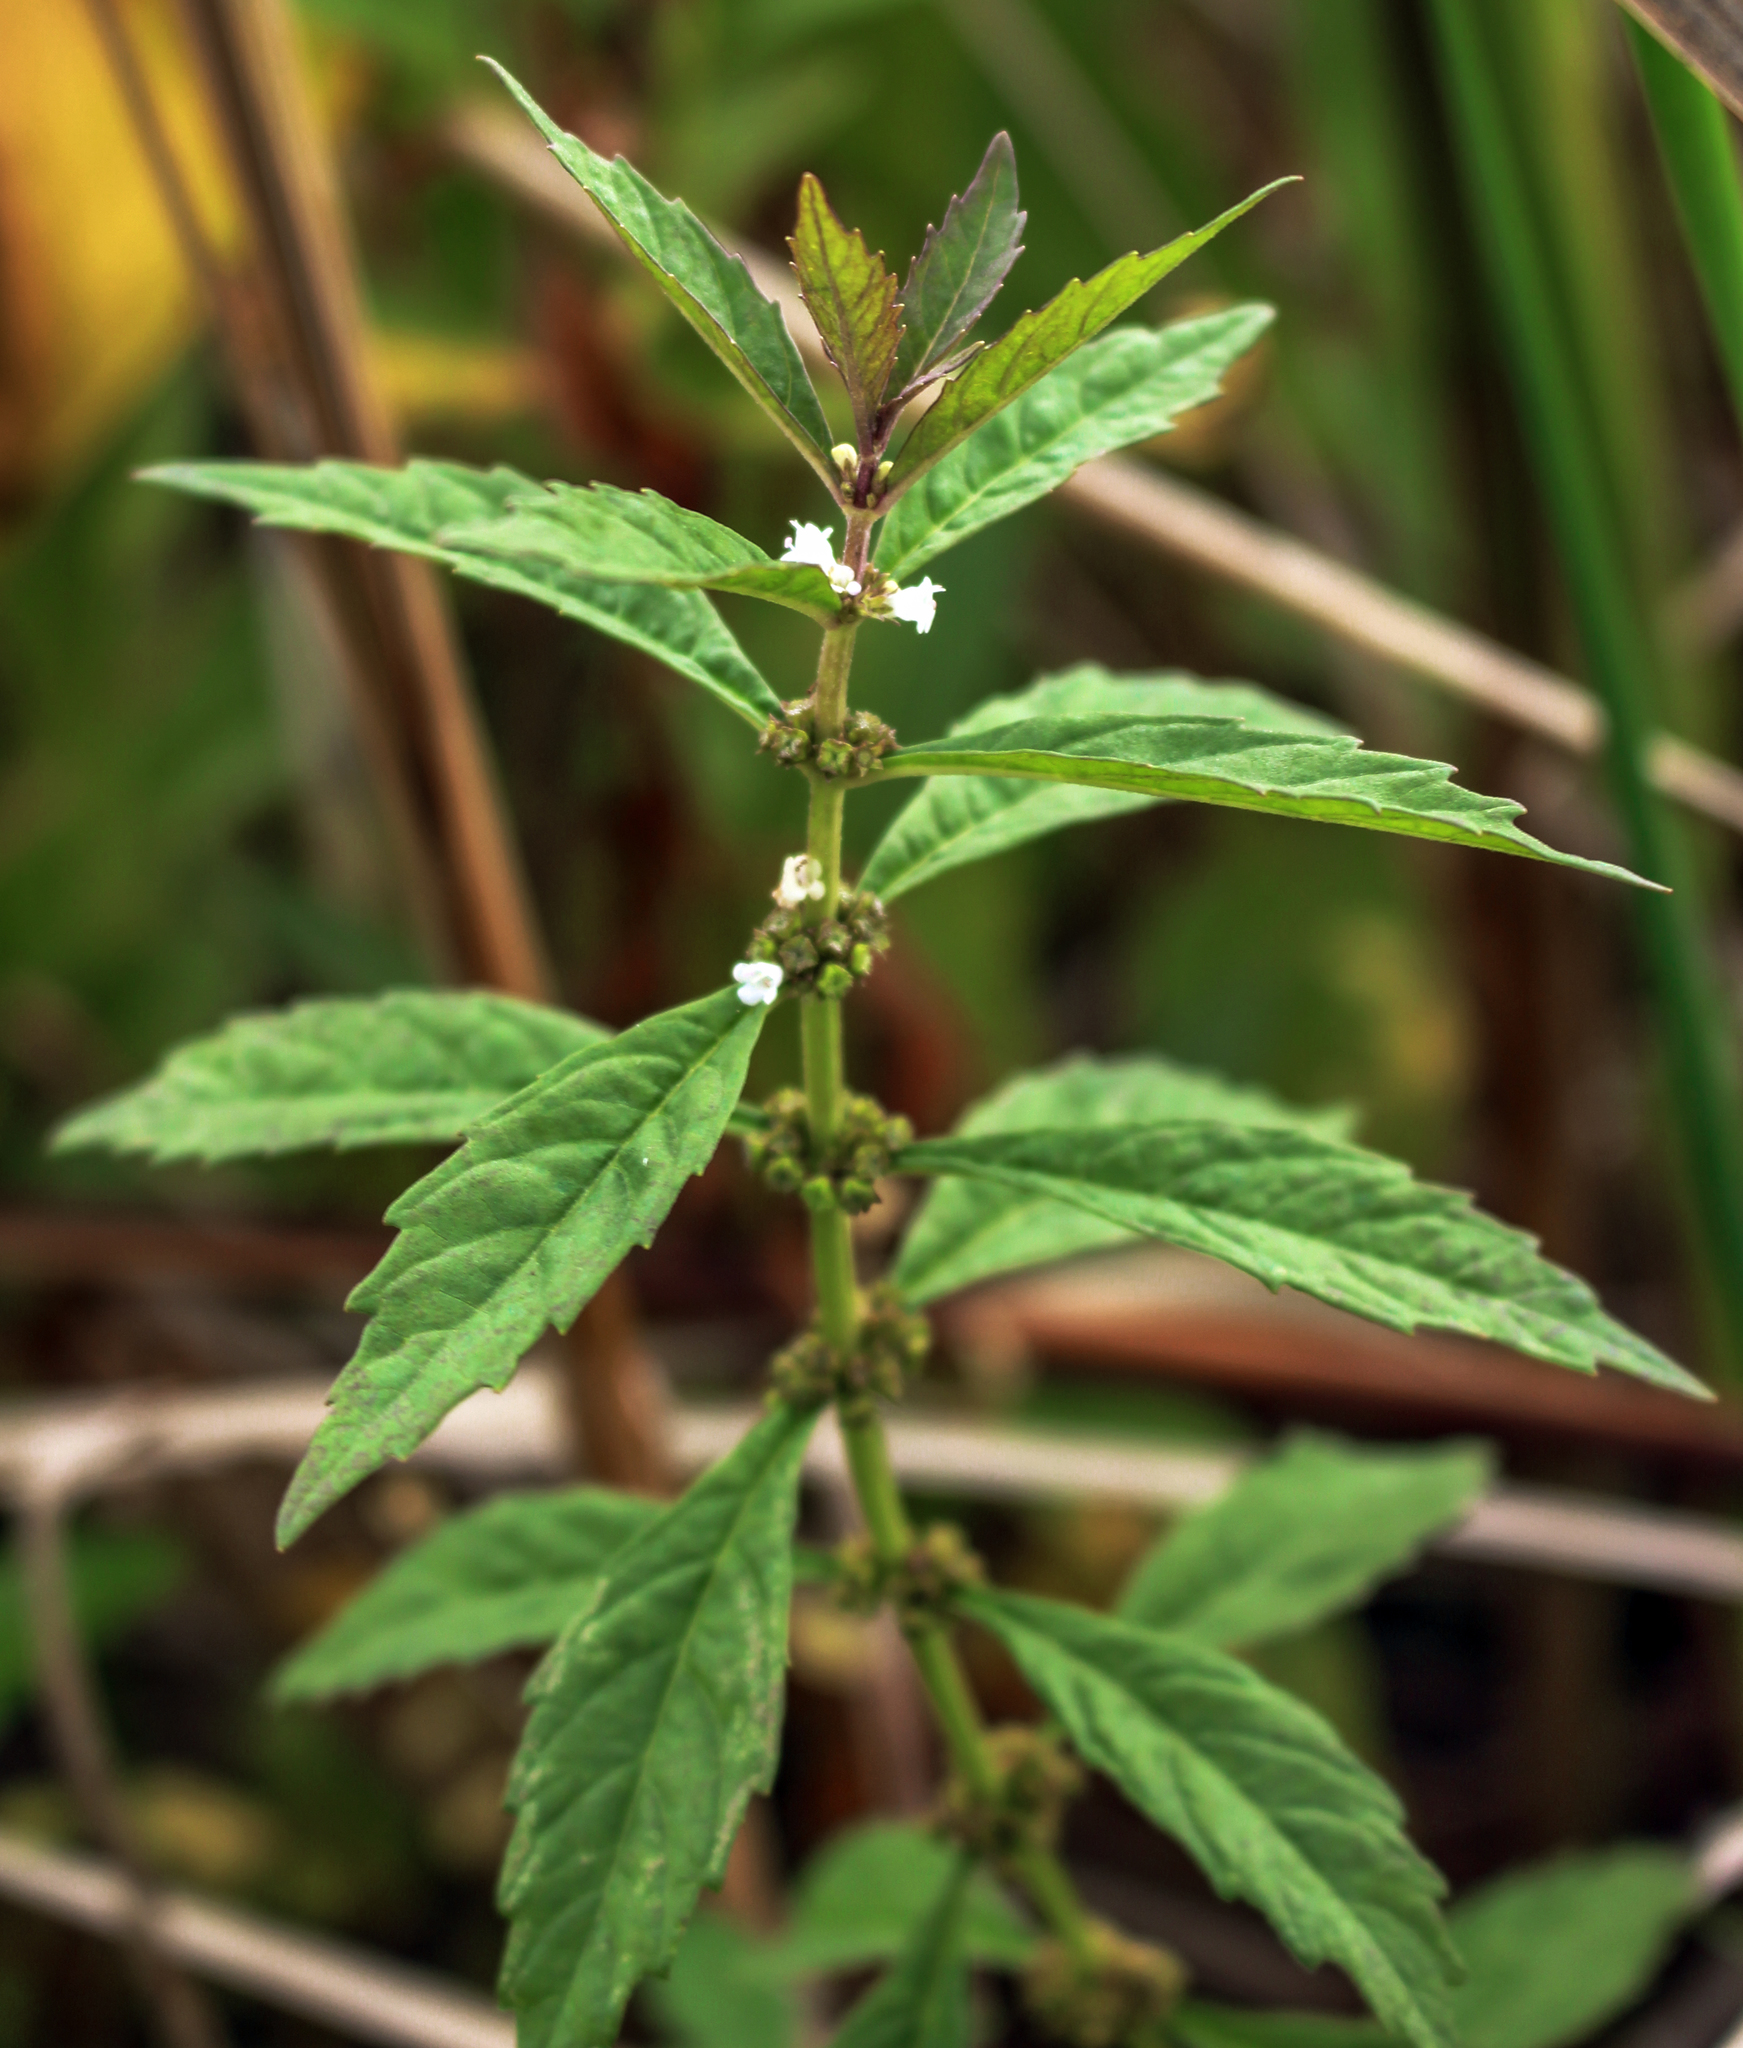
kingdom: Plantae
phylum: Tracheophyta
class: Magnoliopsida
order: Lamiales
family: Lamiaceae
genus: Lycopus
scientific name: Lycopus uniflorus
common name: Northern bugleweed
